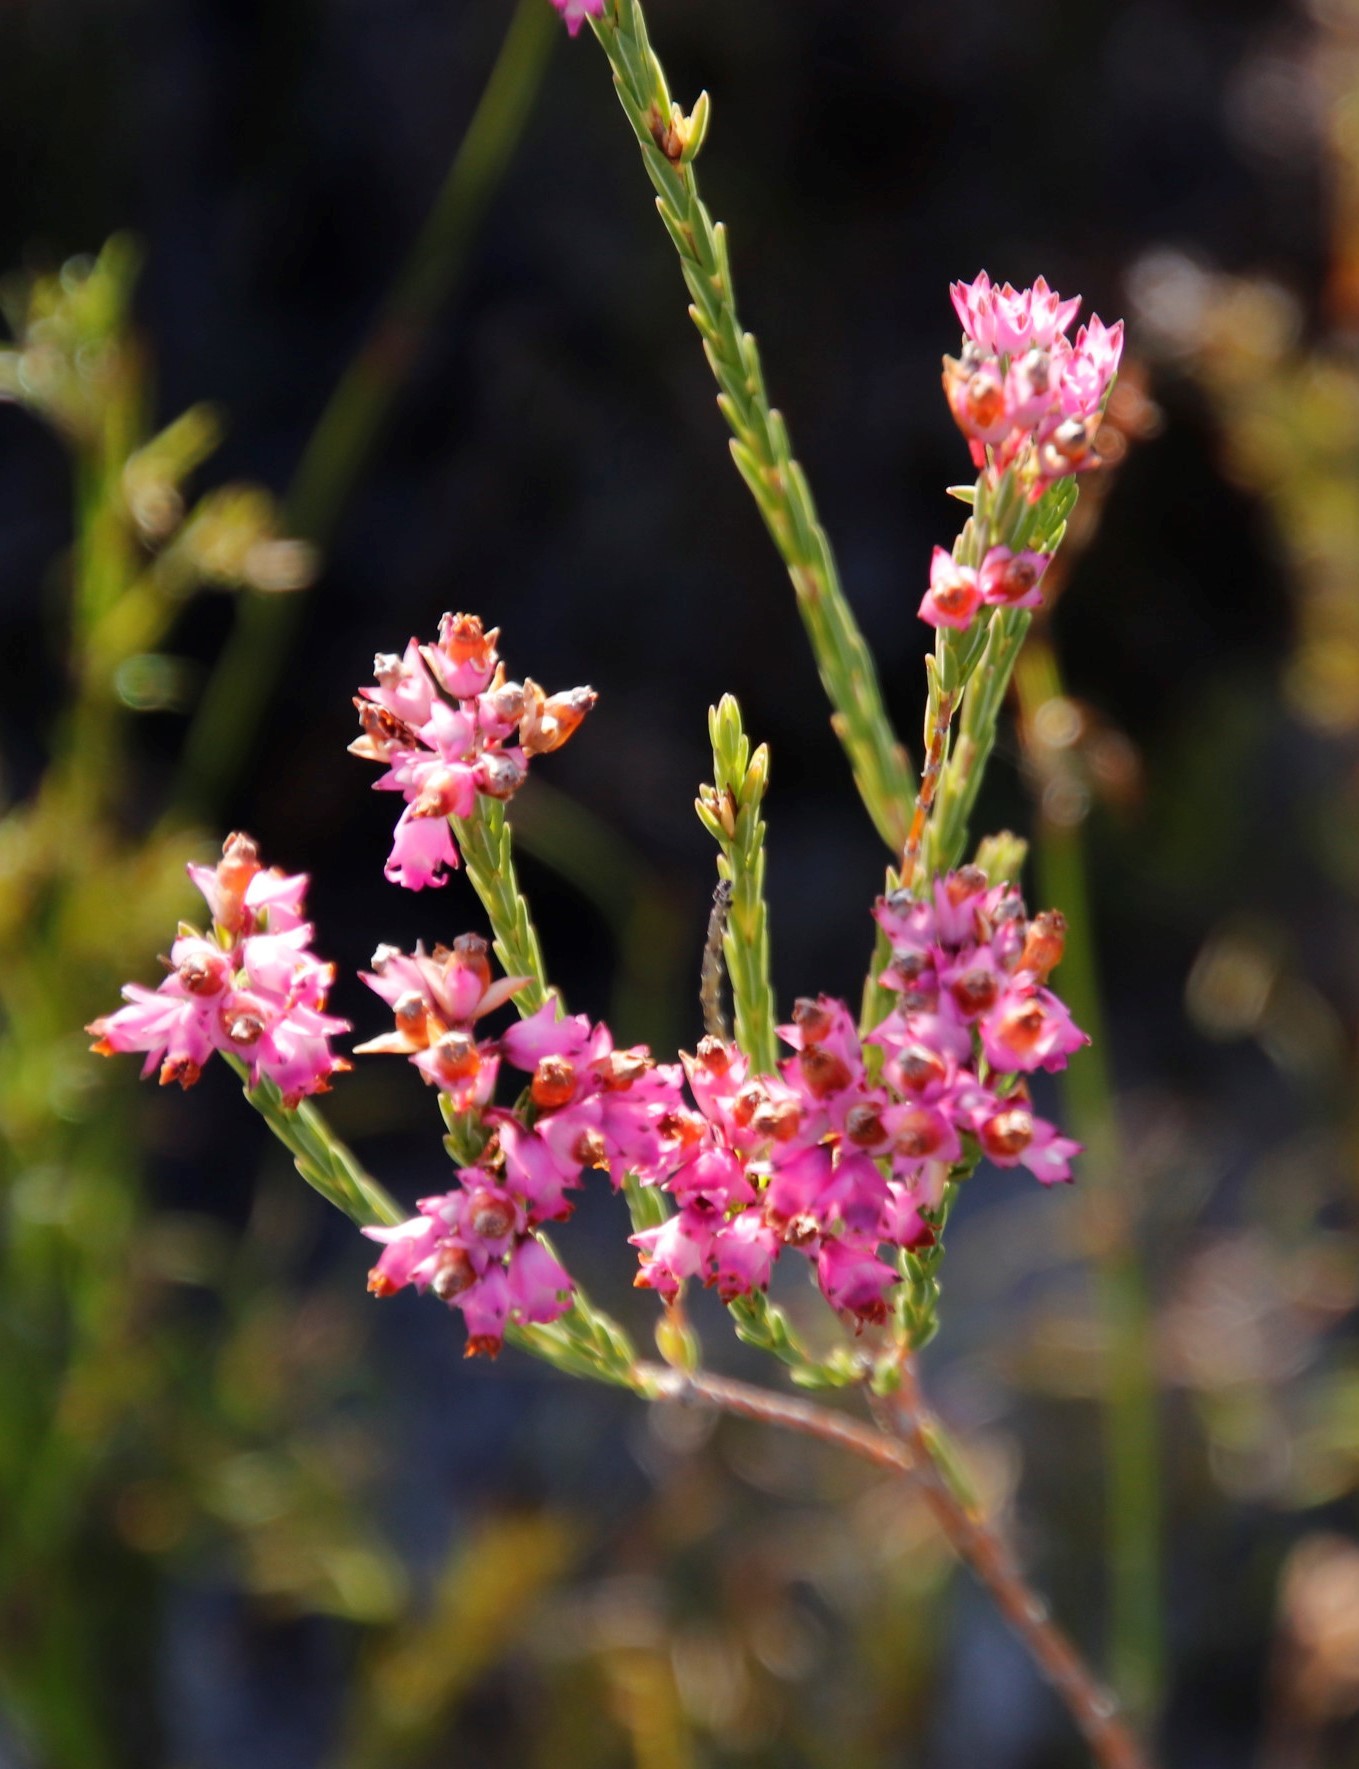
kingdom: Plantae
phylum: Tracheophyta
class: Magnoliopsida
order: Ericales
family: Ericaceae
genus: Erica
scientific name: Erica corifolia
